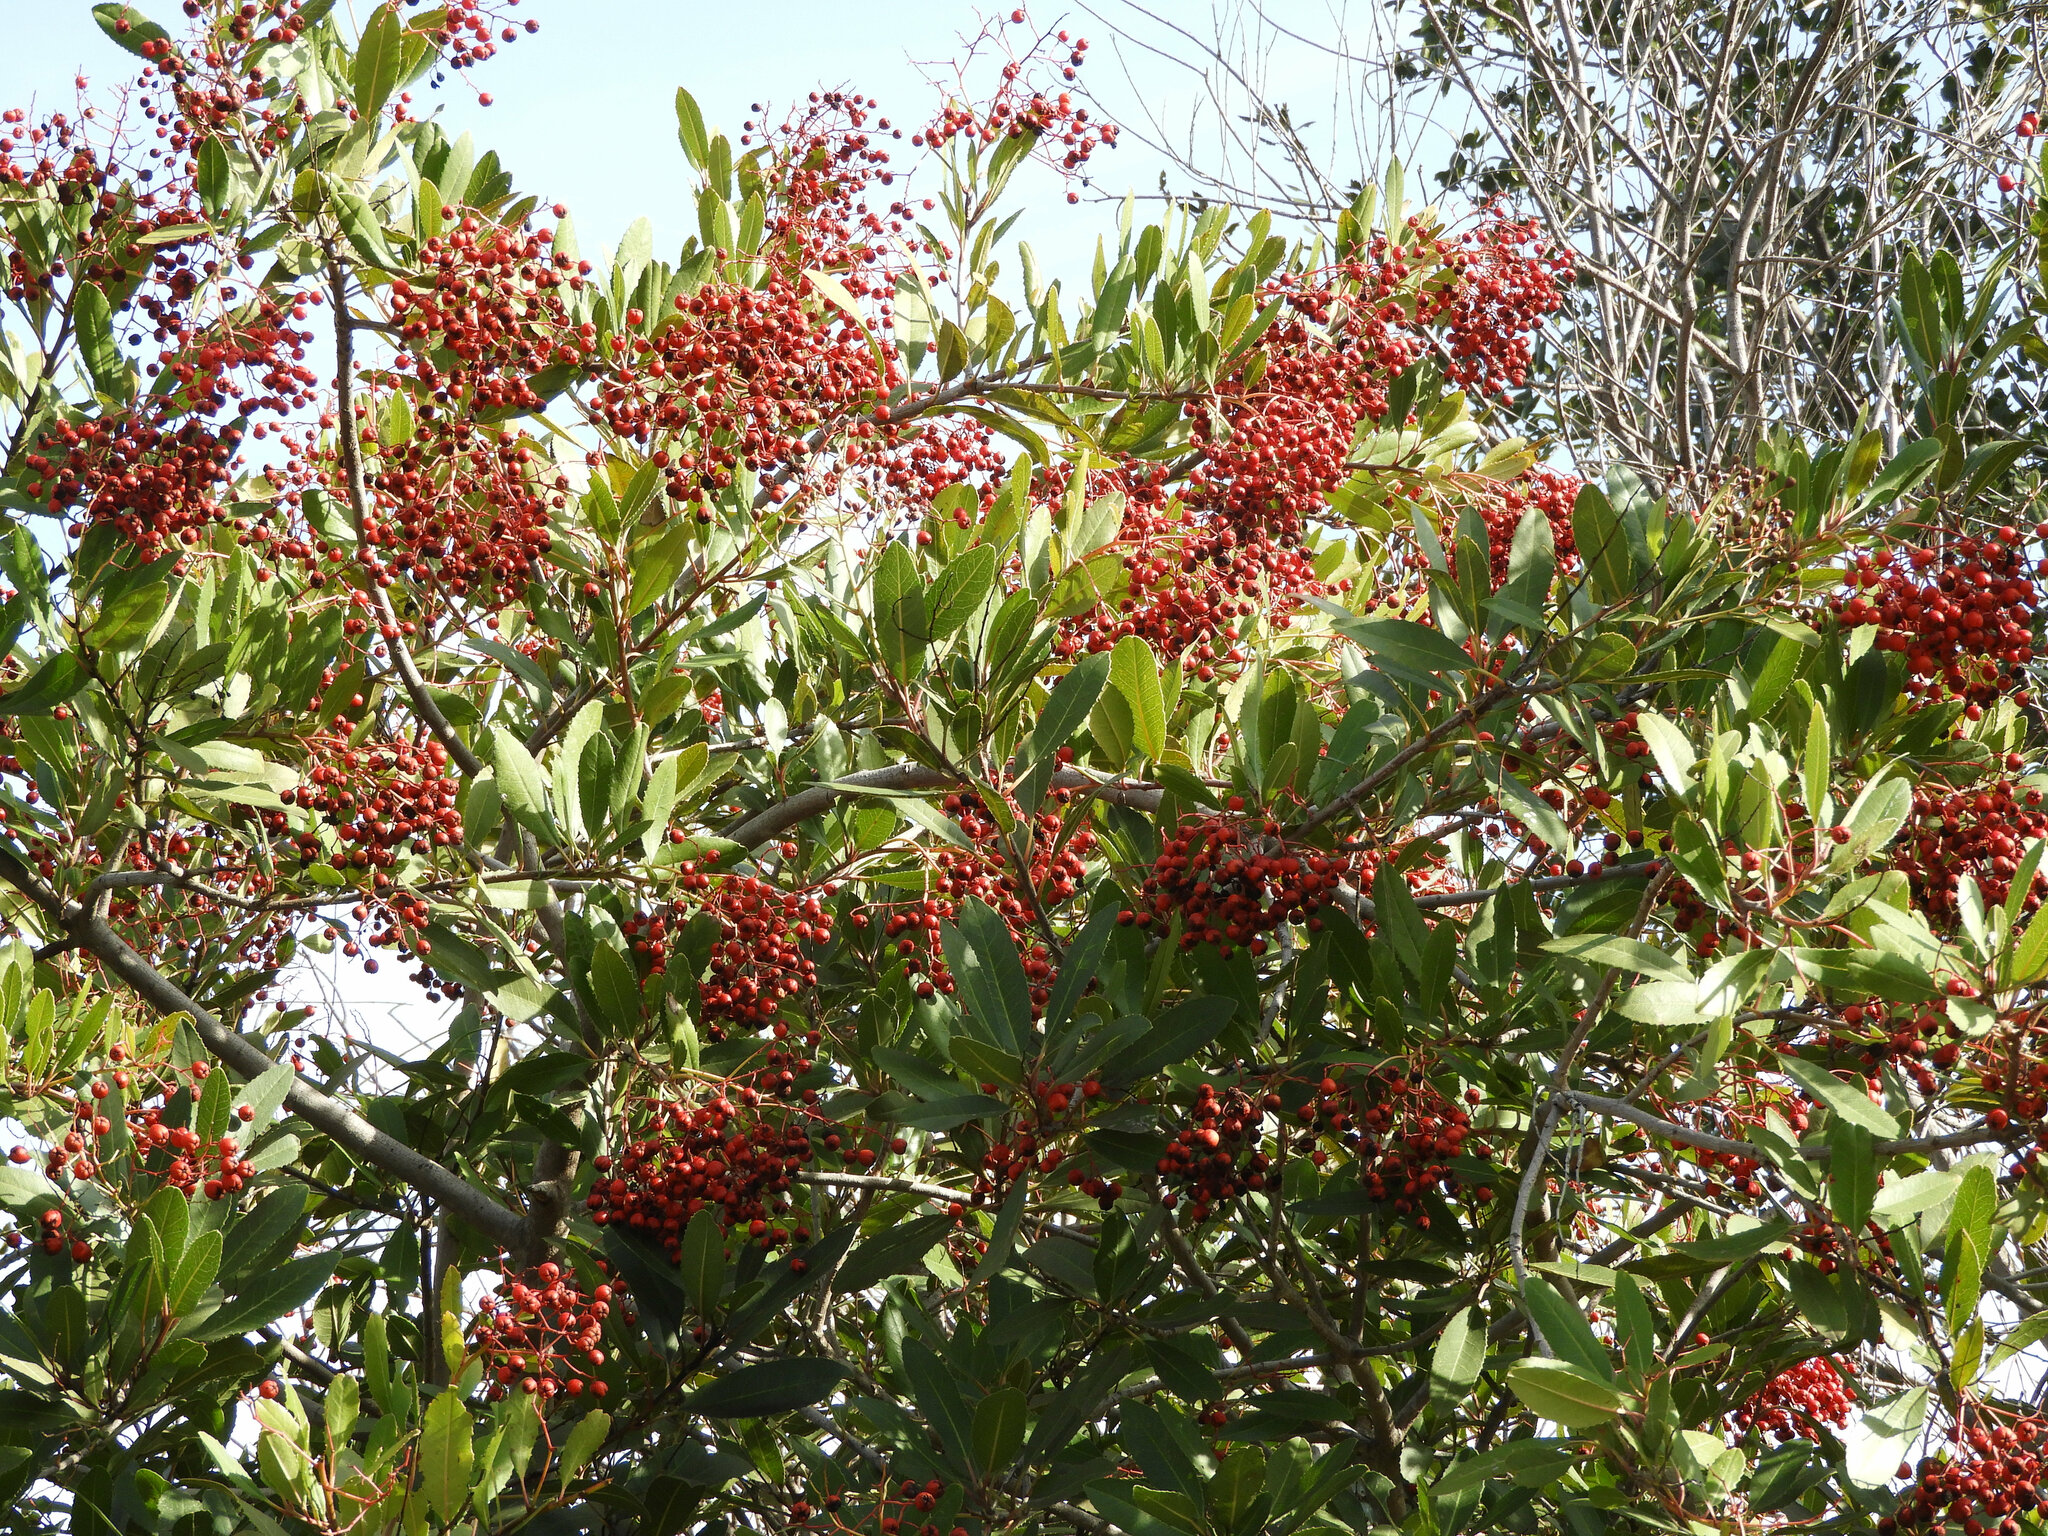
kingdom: Plantae
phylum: Tracheophyta
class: Magnoliopsida
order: Rosales
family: Rosaceae
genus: Heteromeles
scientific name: Heteromeles arbutifolia
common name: California-holly
